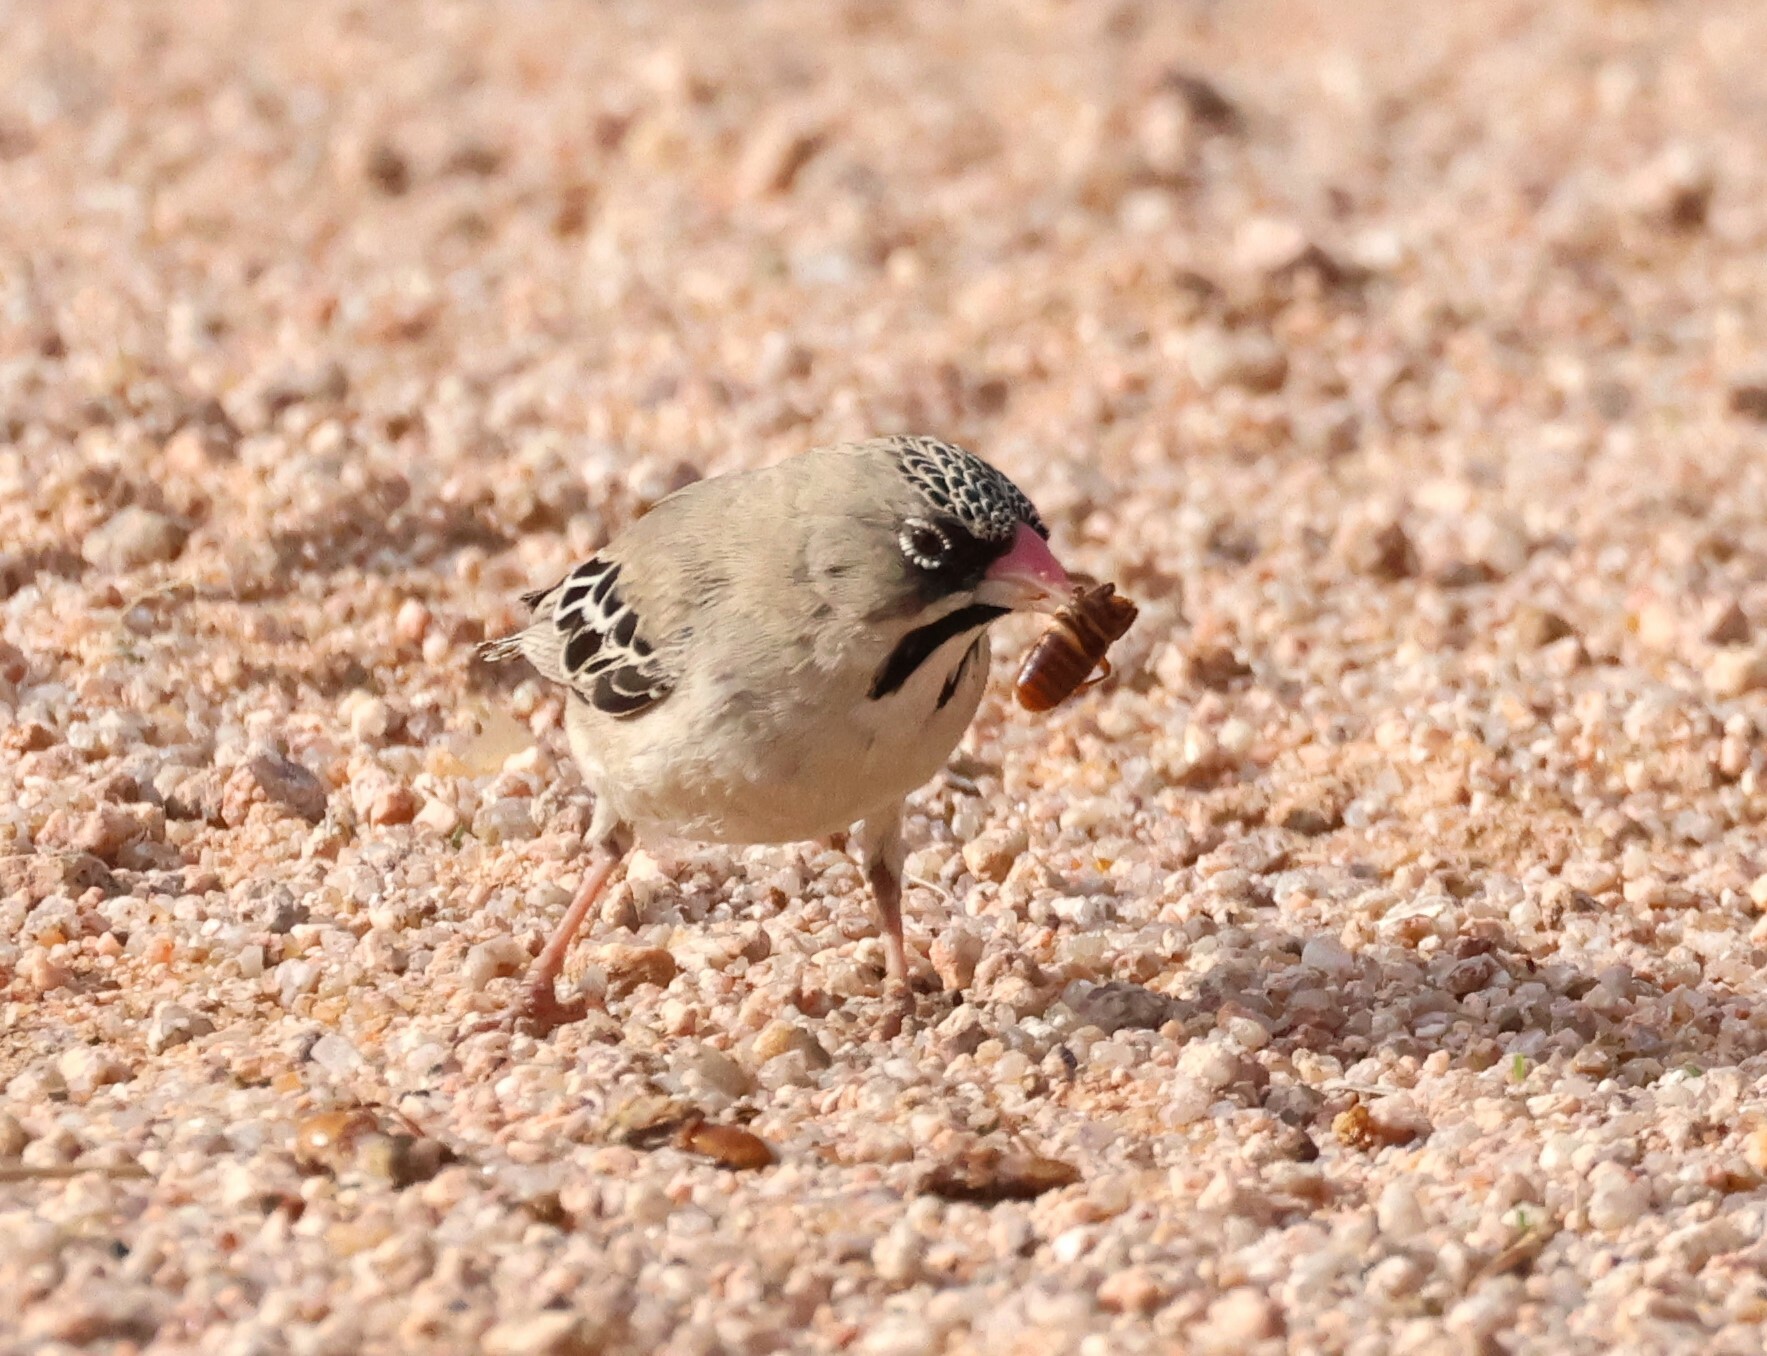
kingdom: Animalia
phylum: Chordata
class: Aves
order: Passeriformes
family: Ploceidae
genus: Sporopipes
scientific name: Sporopipes squamifrons
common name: Scaly-feathered weaver
